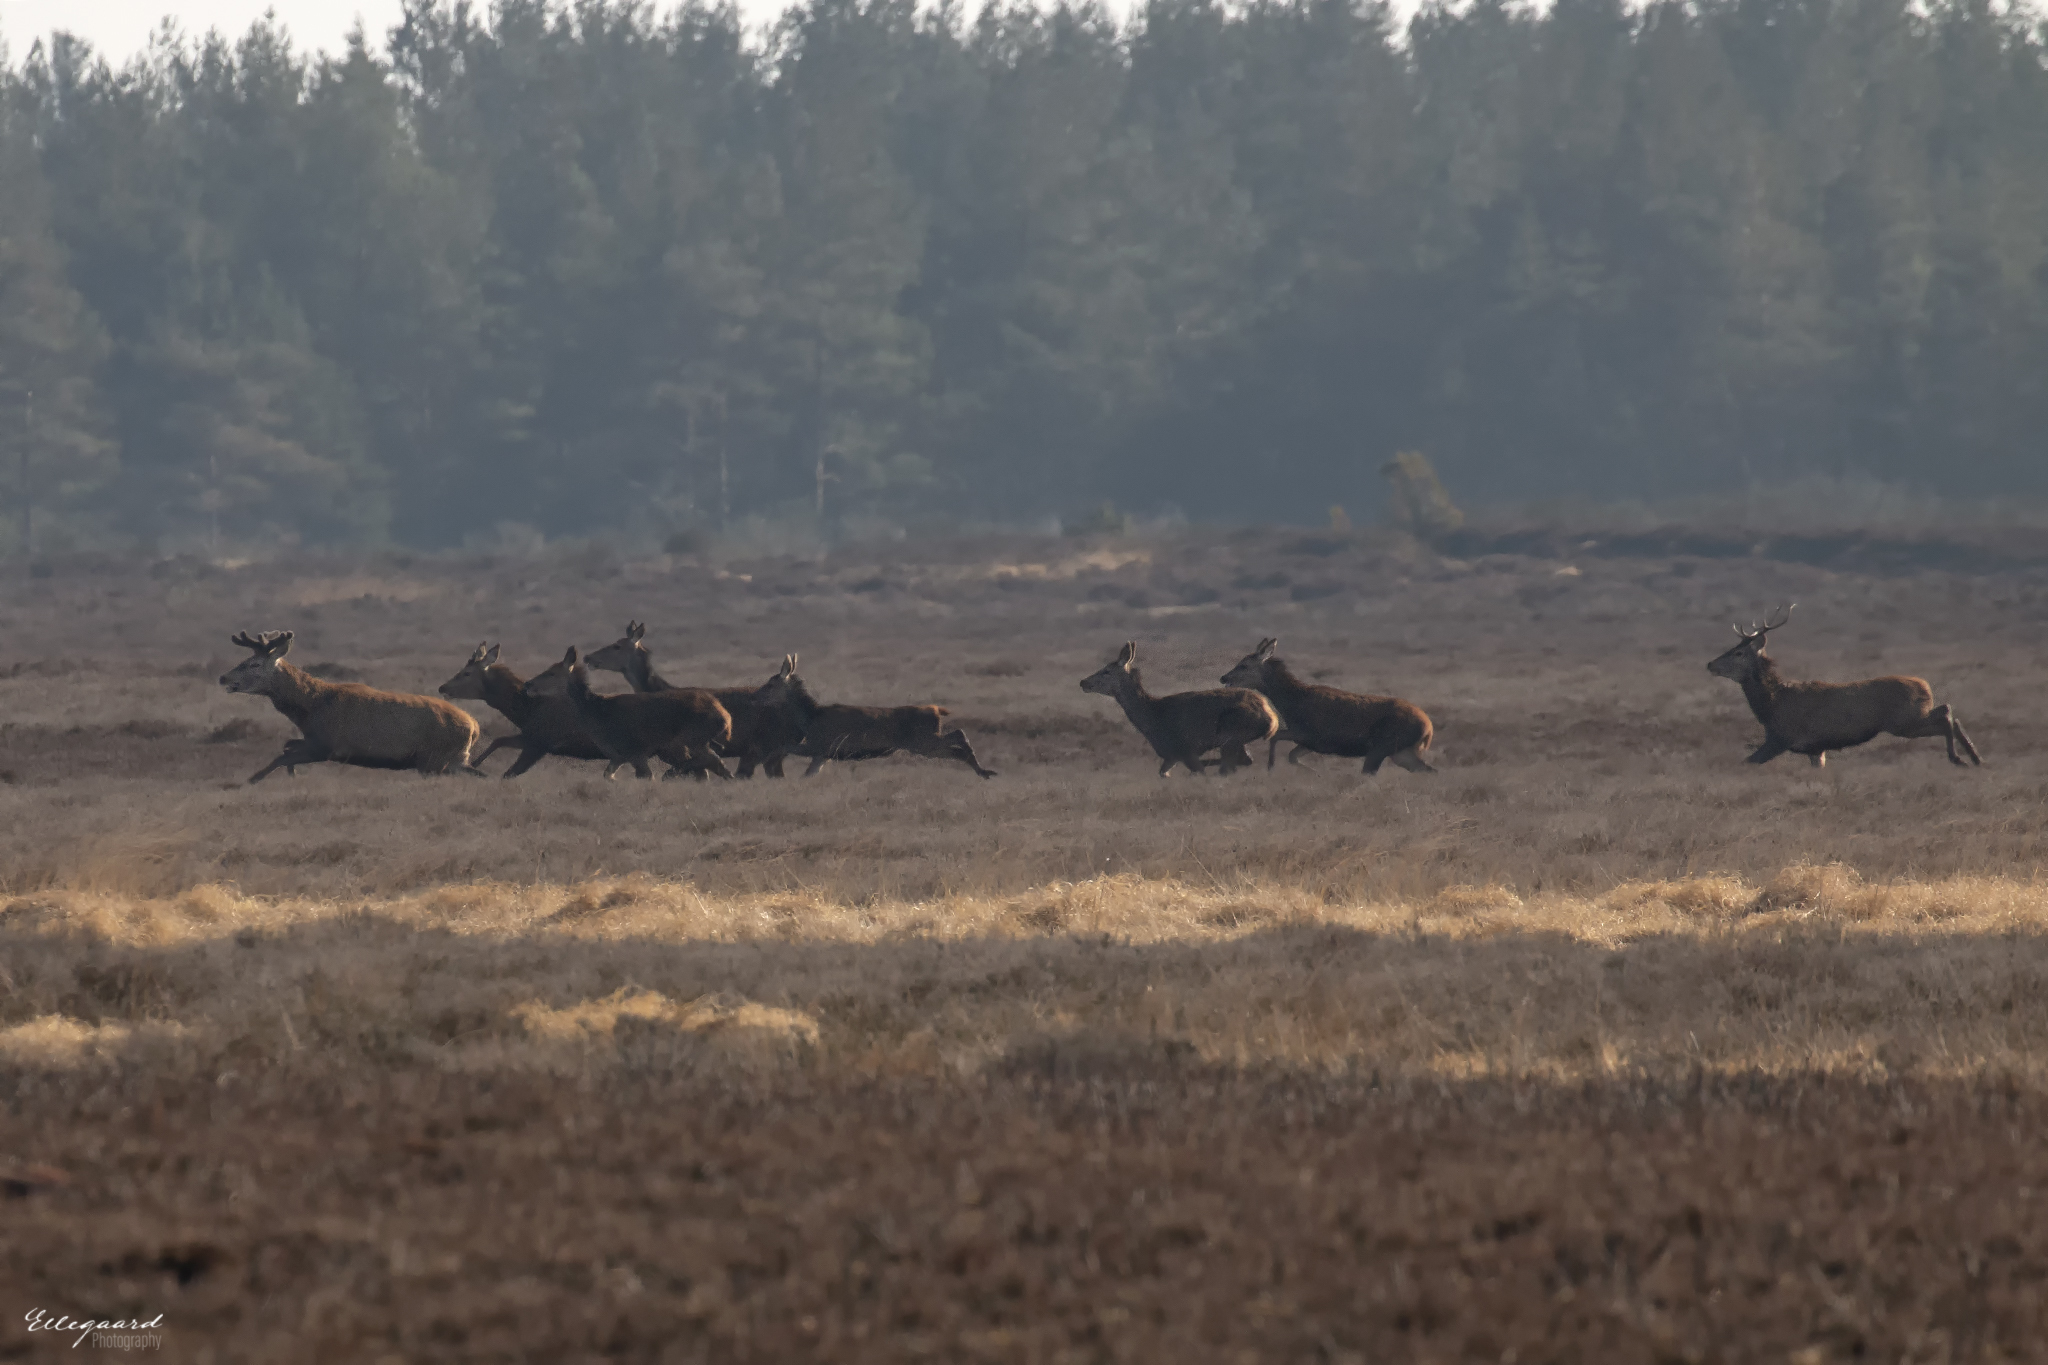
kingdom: Animalia
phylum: Chordata
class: Mammalia
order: Artiodactyla
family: Cervidae
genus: Cervus
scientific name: Cervus elaphus
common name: Red deer
